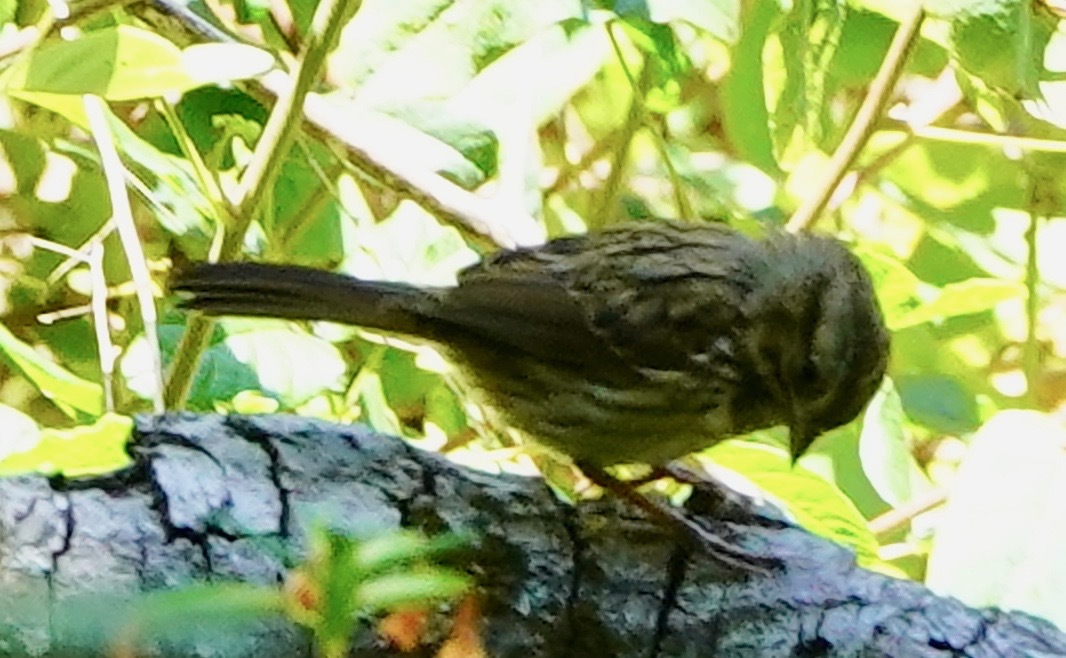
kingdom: Animalia
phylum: Chordata
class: Aves
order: Passeriformes
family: Passerellidae
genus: Melospiza
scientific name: Melospiza melodia
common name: Song sparrow
